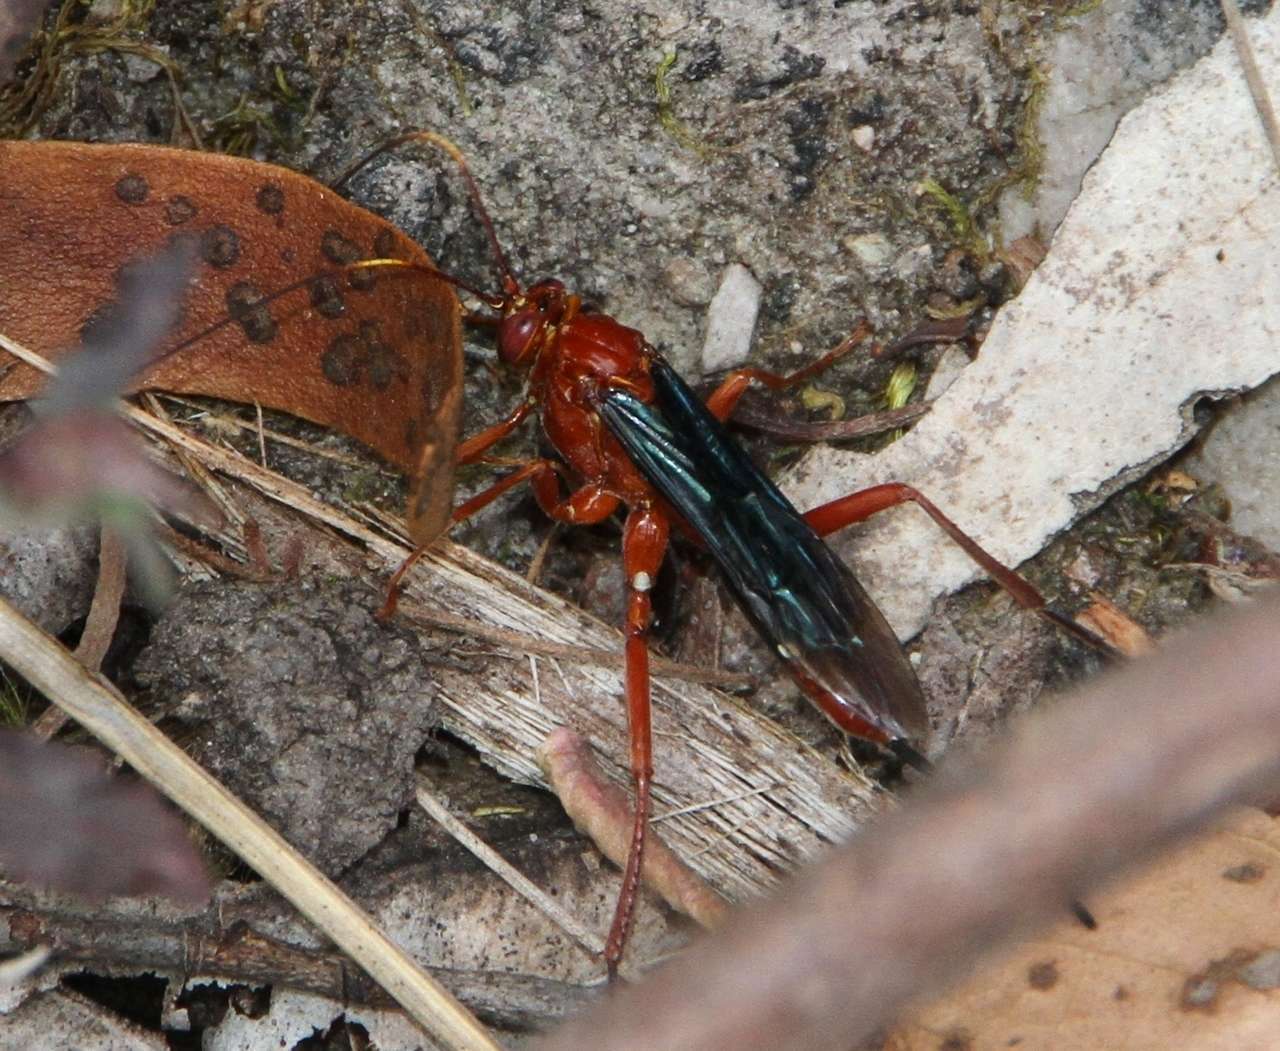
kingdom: Animalia
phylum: Arthropoda
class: Insecta
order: Hymenoptera
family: Ichneumonidae
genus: Lissopimpla
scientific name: Lissopimpla excelsa
